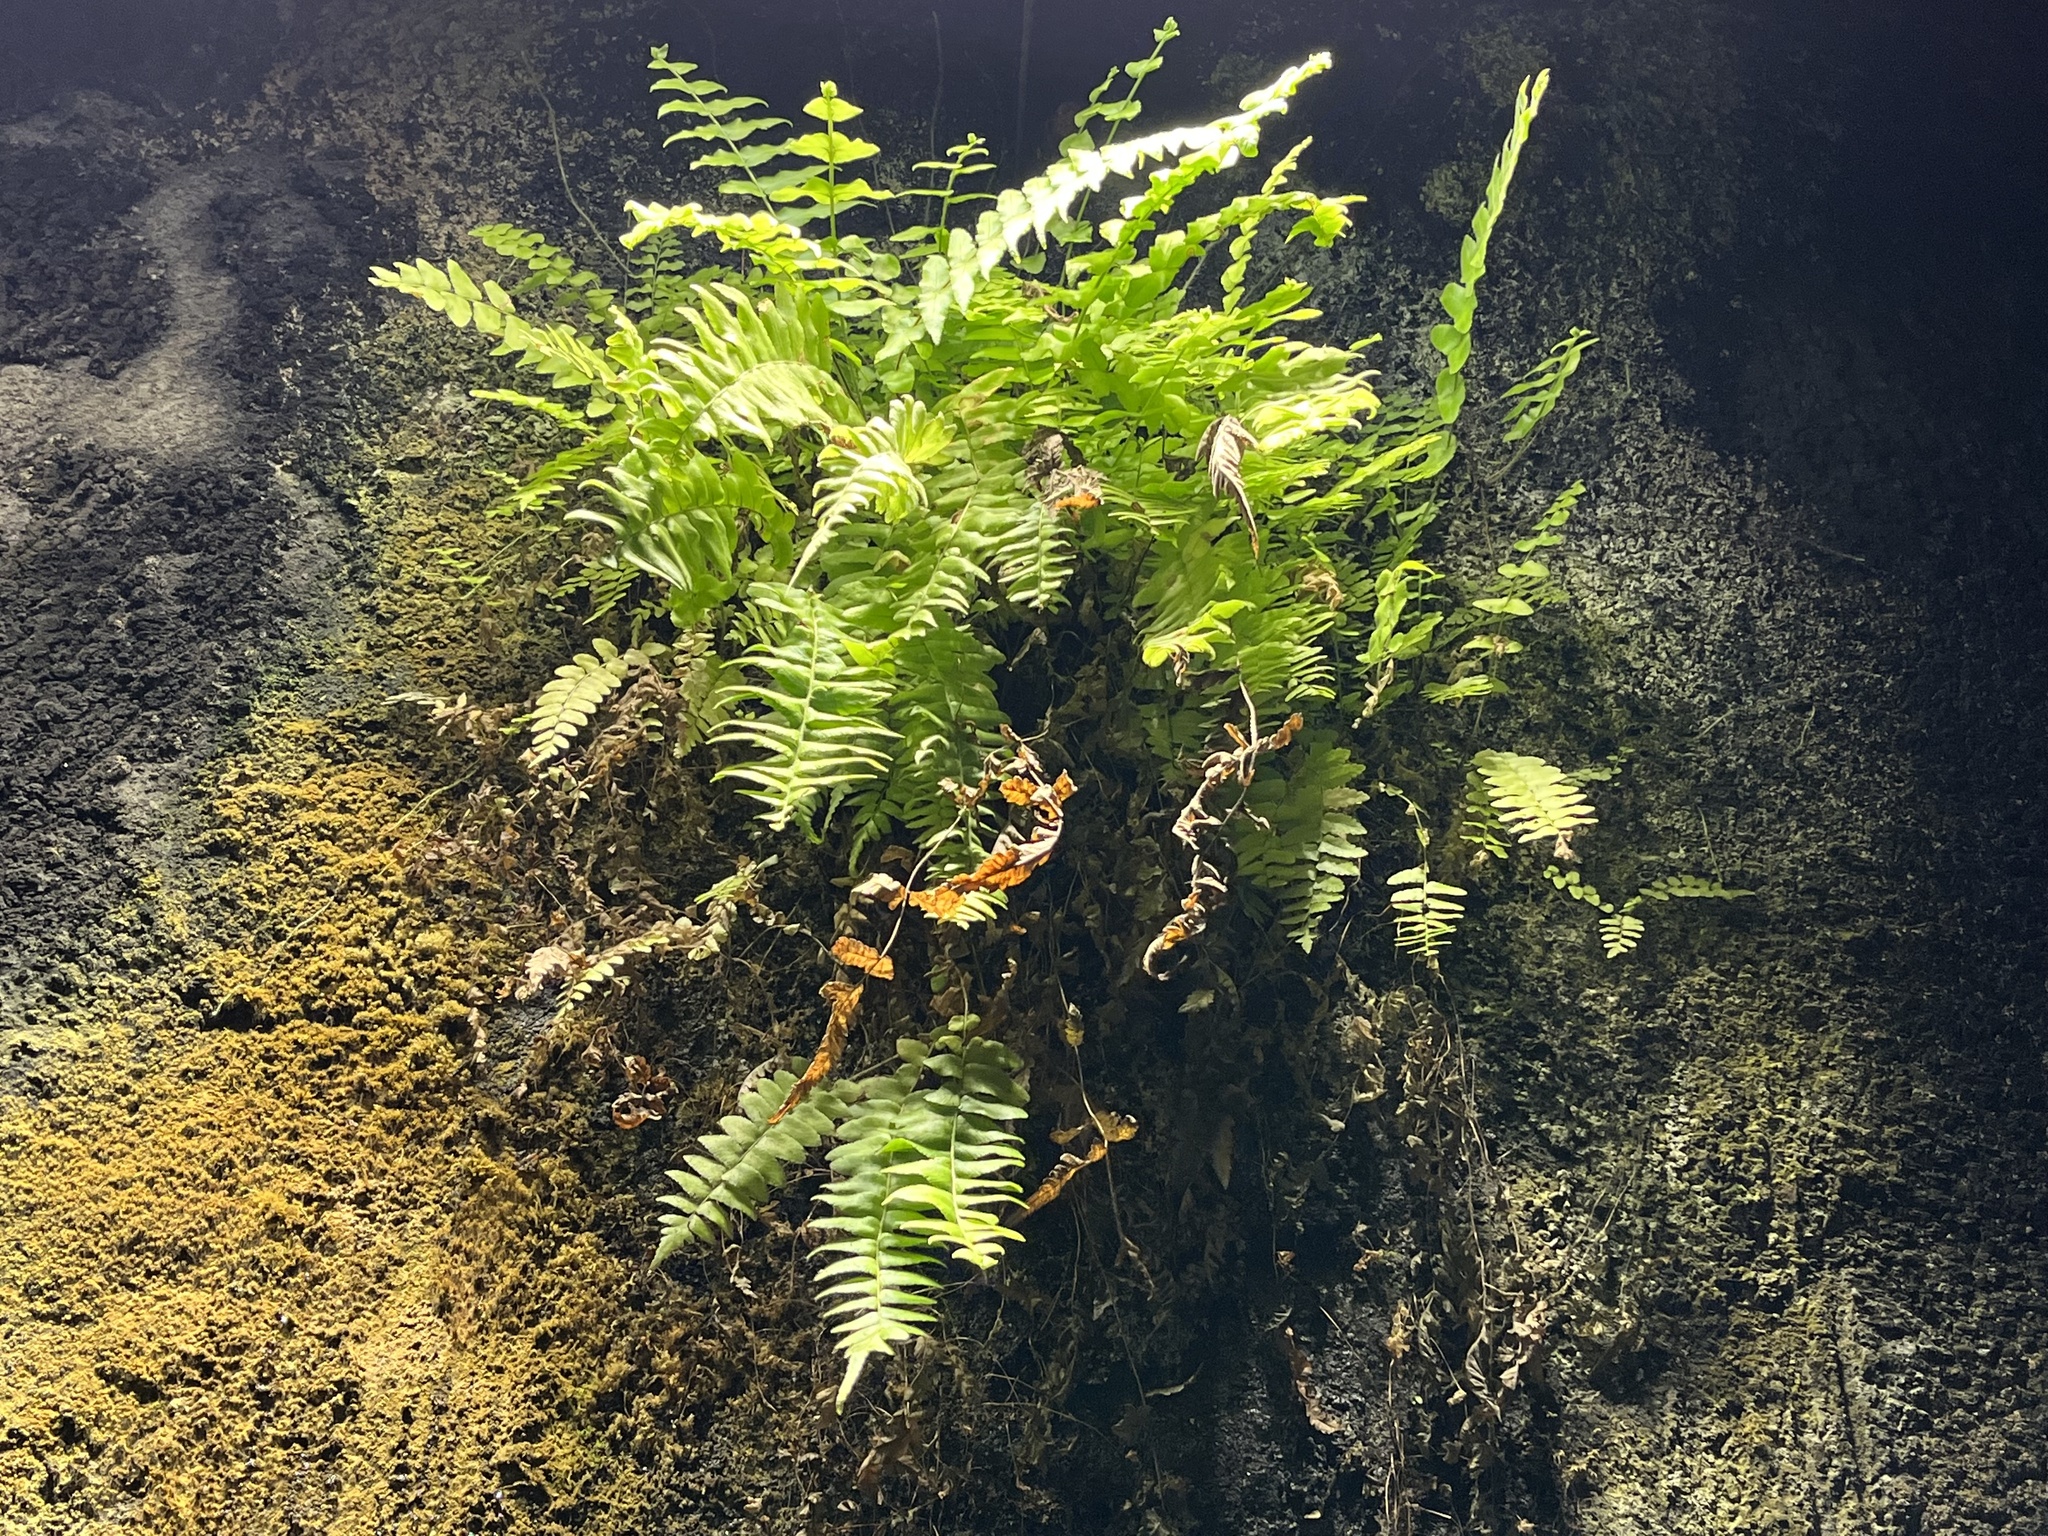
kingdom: Plantae
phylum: Tracheophyta
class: Polypodiopsida
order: Polypodiales
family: Nephrolepidaceae
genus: Nephrolepis
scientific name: Nephrolepis biserrata
